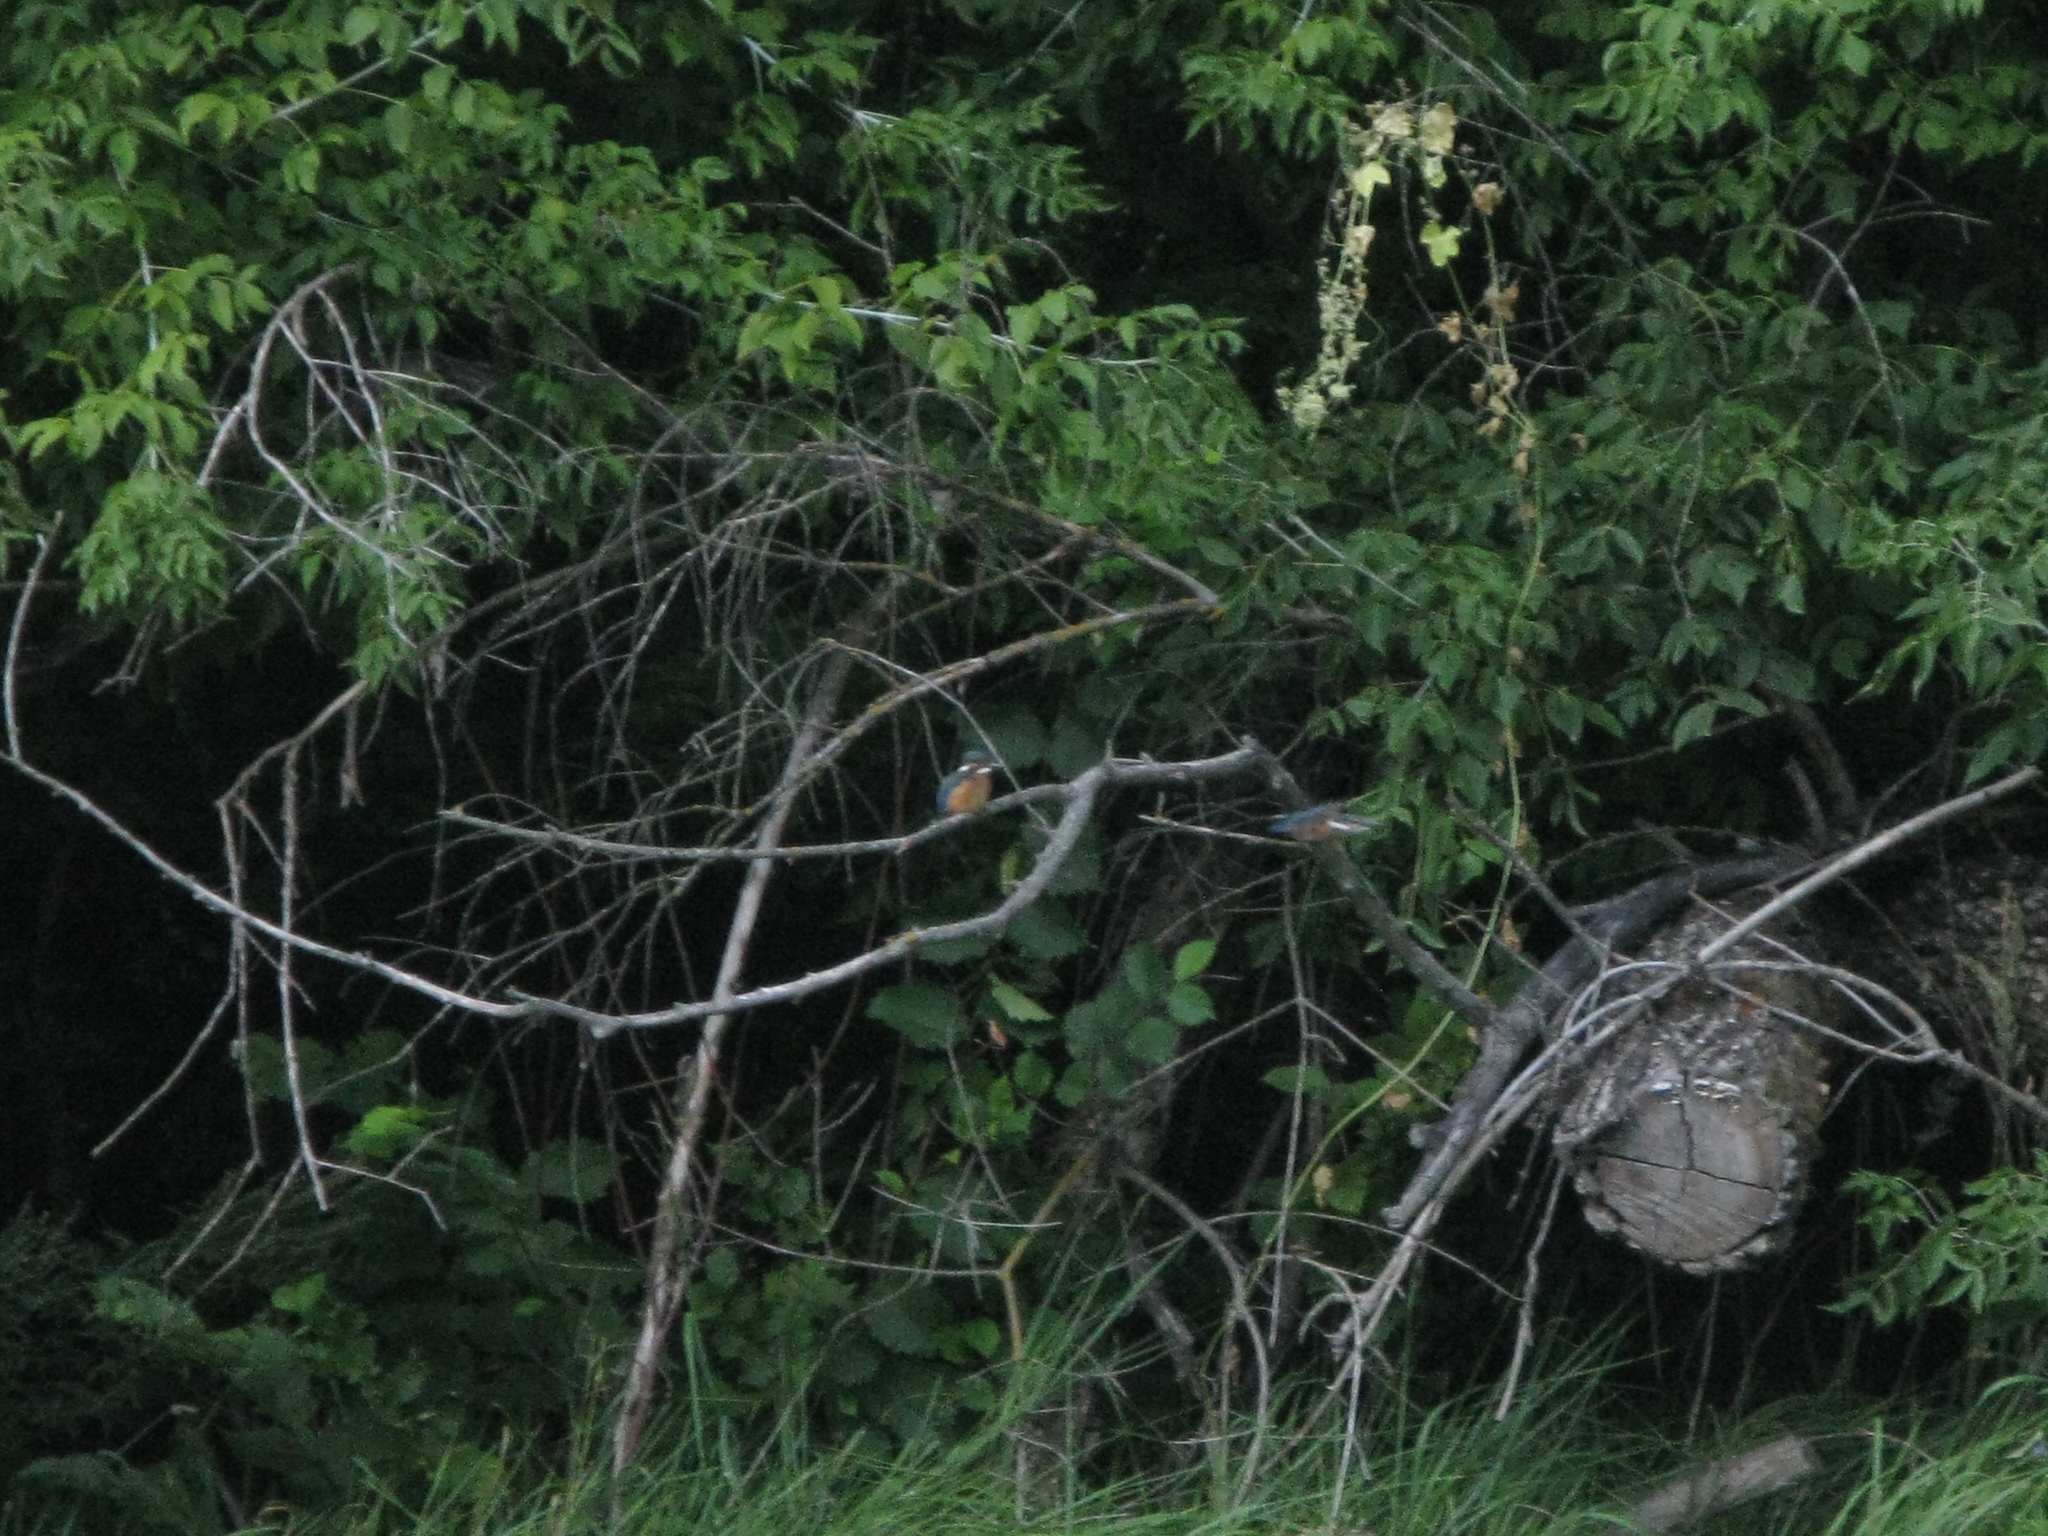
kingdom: Animalia
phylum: Chordata
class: Aves
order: Coraciiformes
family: Alcedinidae
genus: Alcedo
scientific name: Alcedo atthis
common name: Common kingfisher
